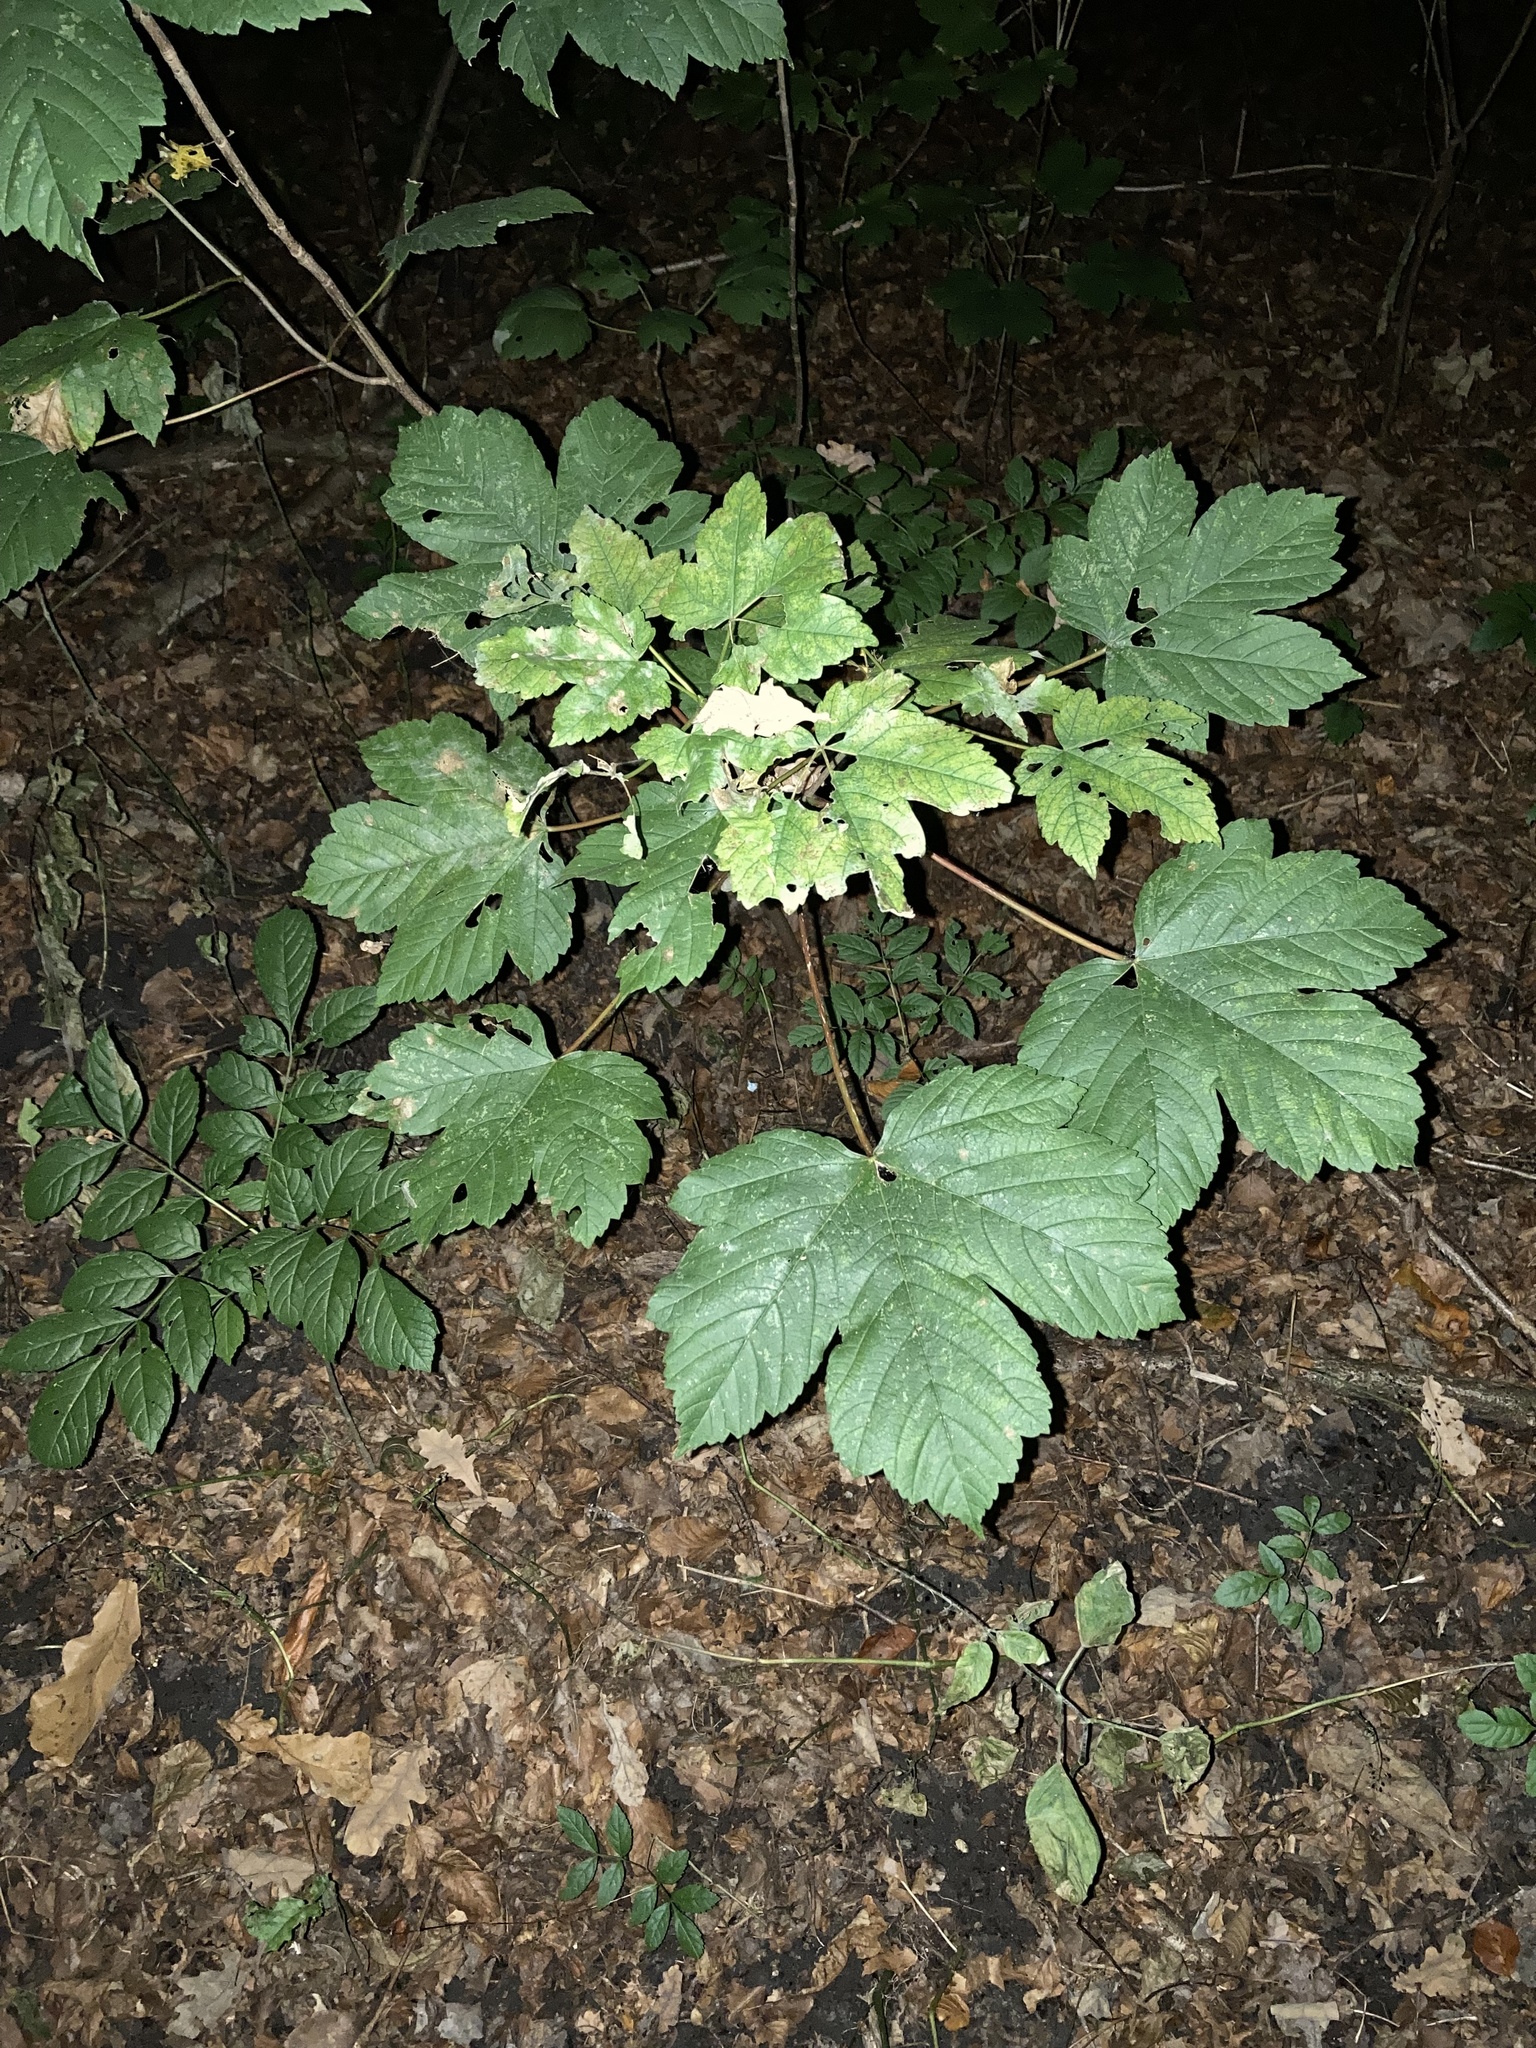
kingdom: Plantae
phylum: Tracheophyta
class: Magnoliopsida
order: Sapindales
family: Sapindaceae
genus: Acer
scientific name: Acer pseudoplatanus
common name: Sycamore
